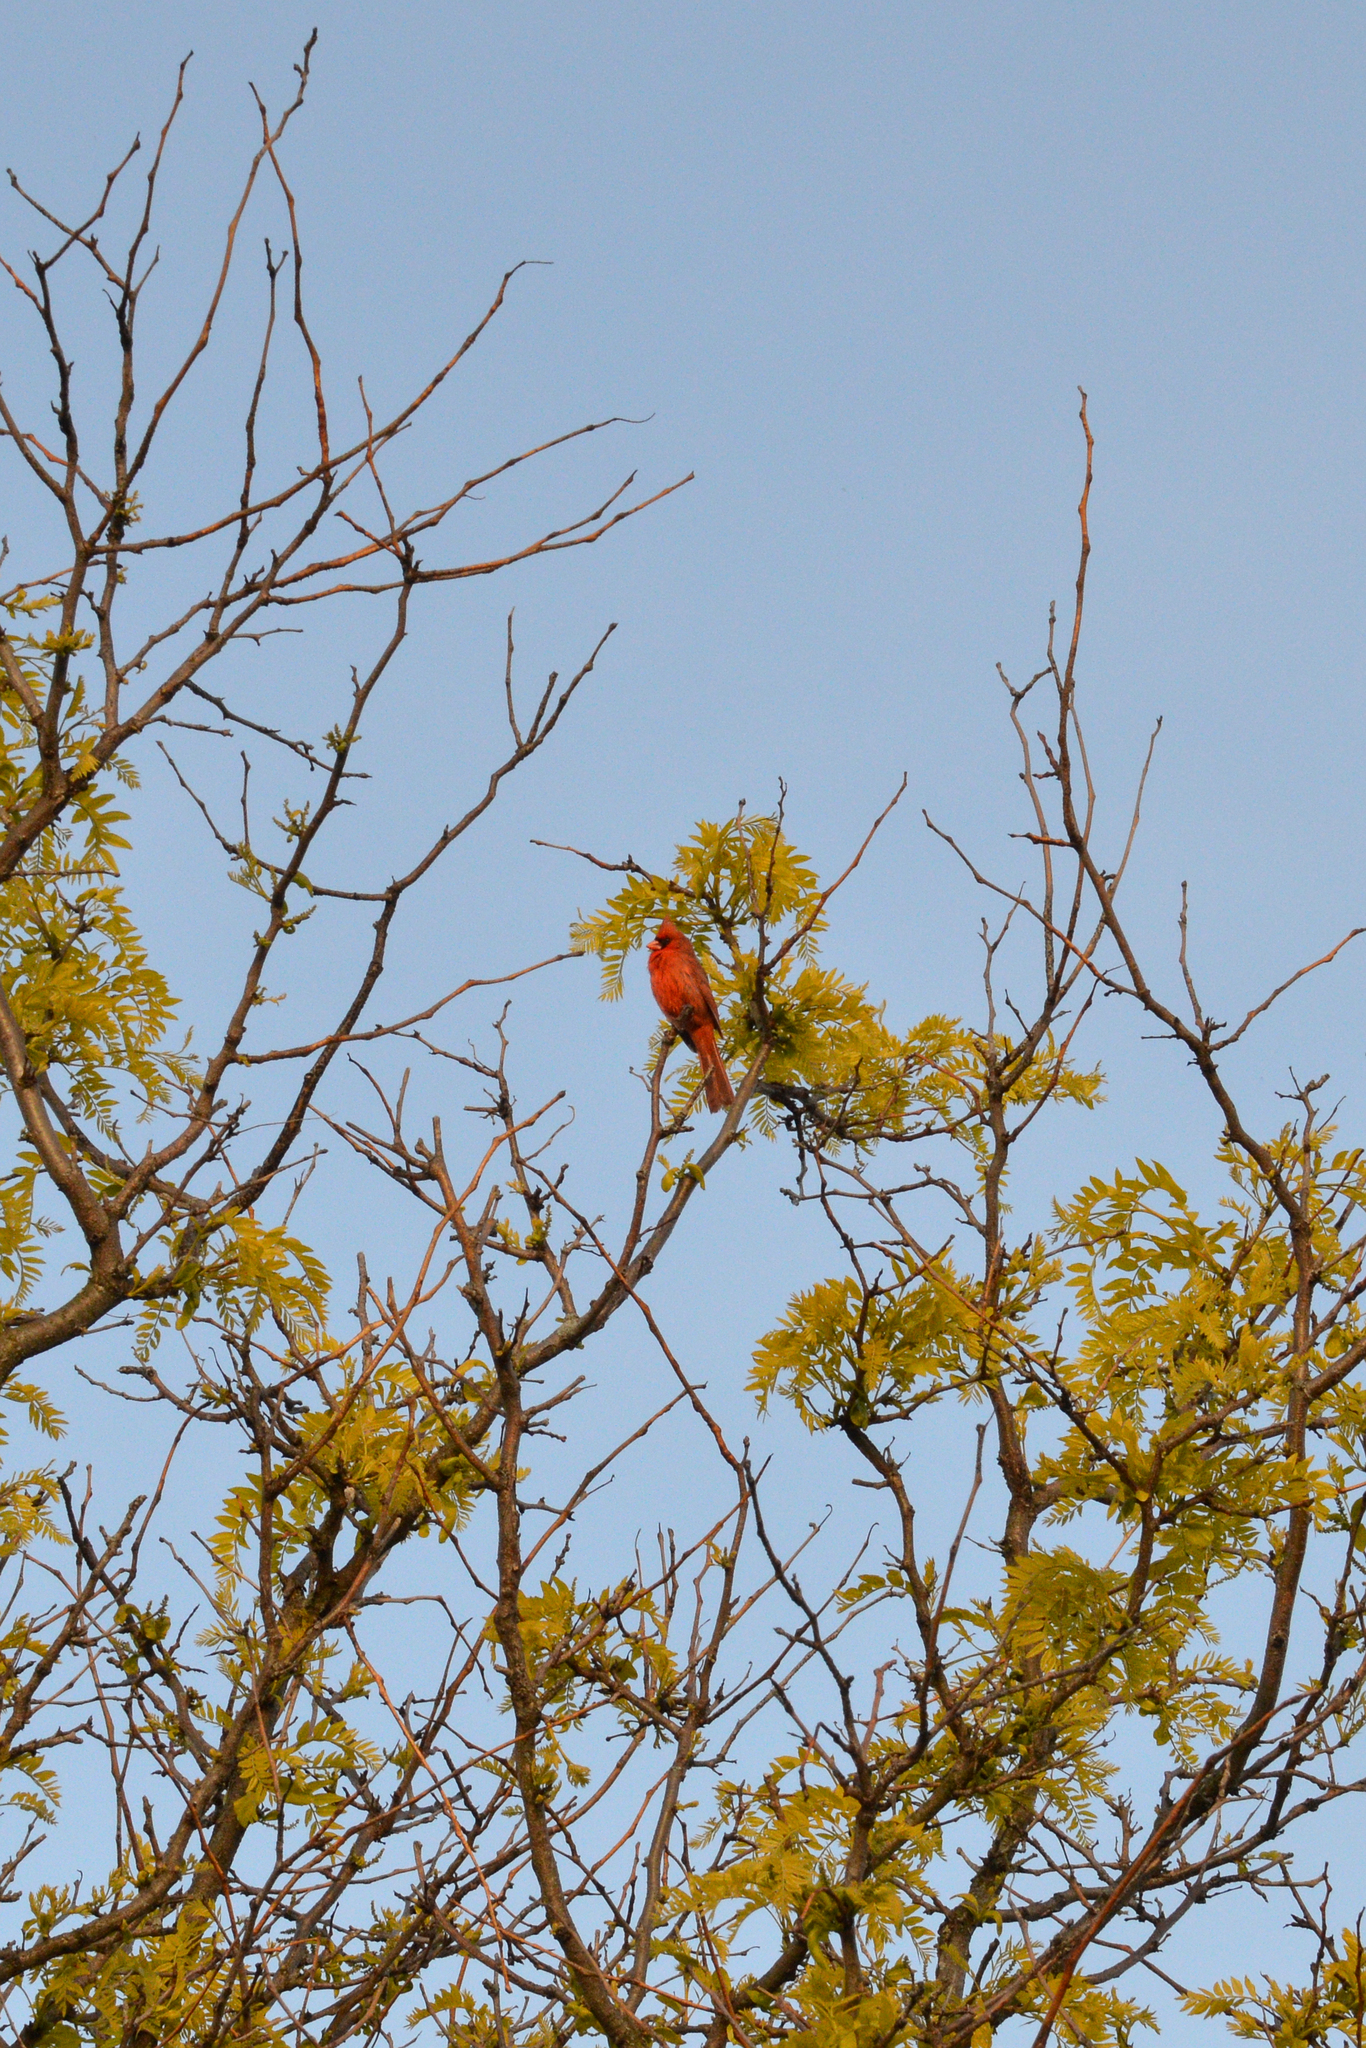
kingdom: Animalia
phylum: Chordata
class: Aves
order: Passeriformes
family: Cardinalidae
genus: Cardinalis
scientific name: Cardinalis cardinalis
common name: Northern cardinal
